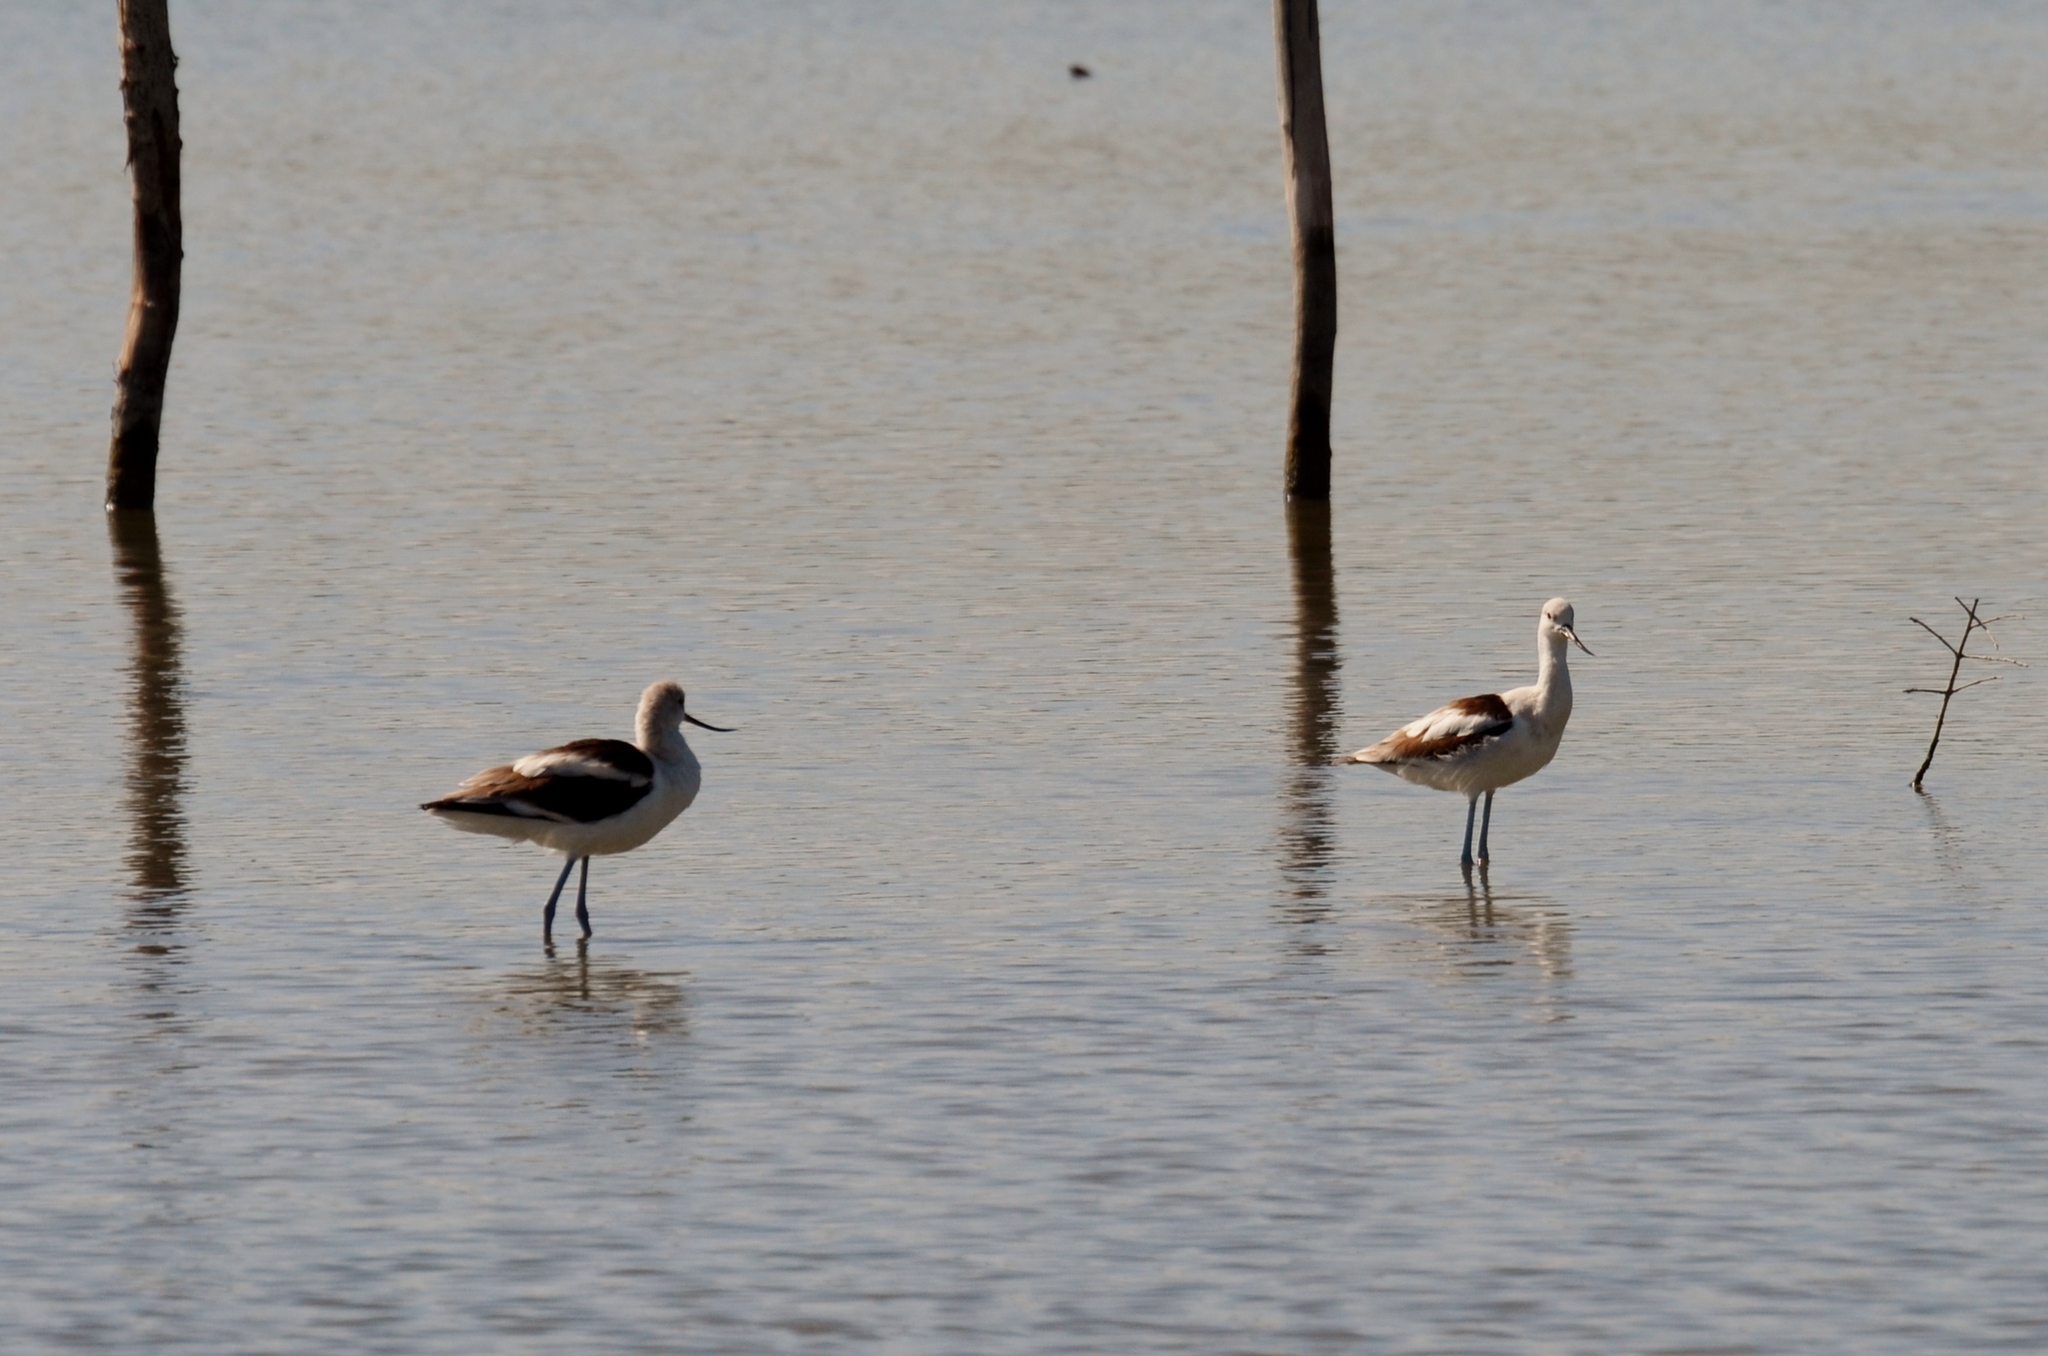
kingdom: Animalia
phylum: Chordata
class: Aves
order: Charadriiformes
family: Recurvirostridae
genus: Recurvirostra
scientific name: Recurvirostra americana
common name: American avocet
